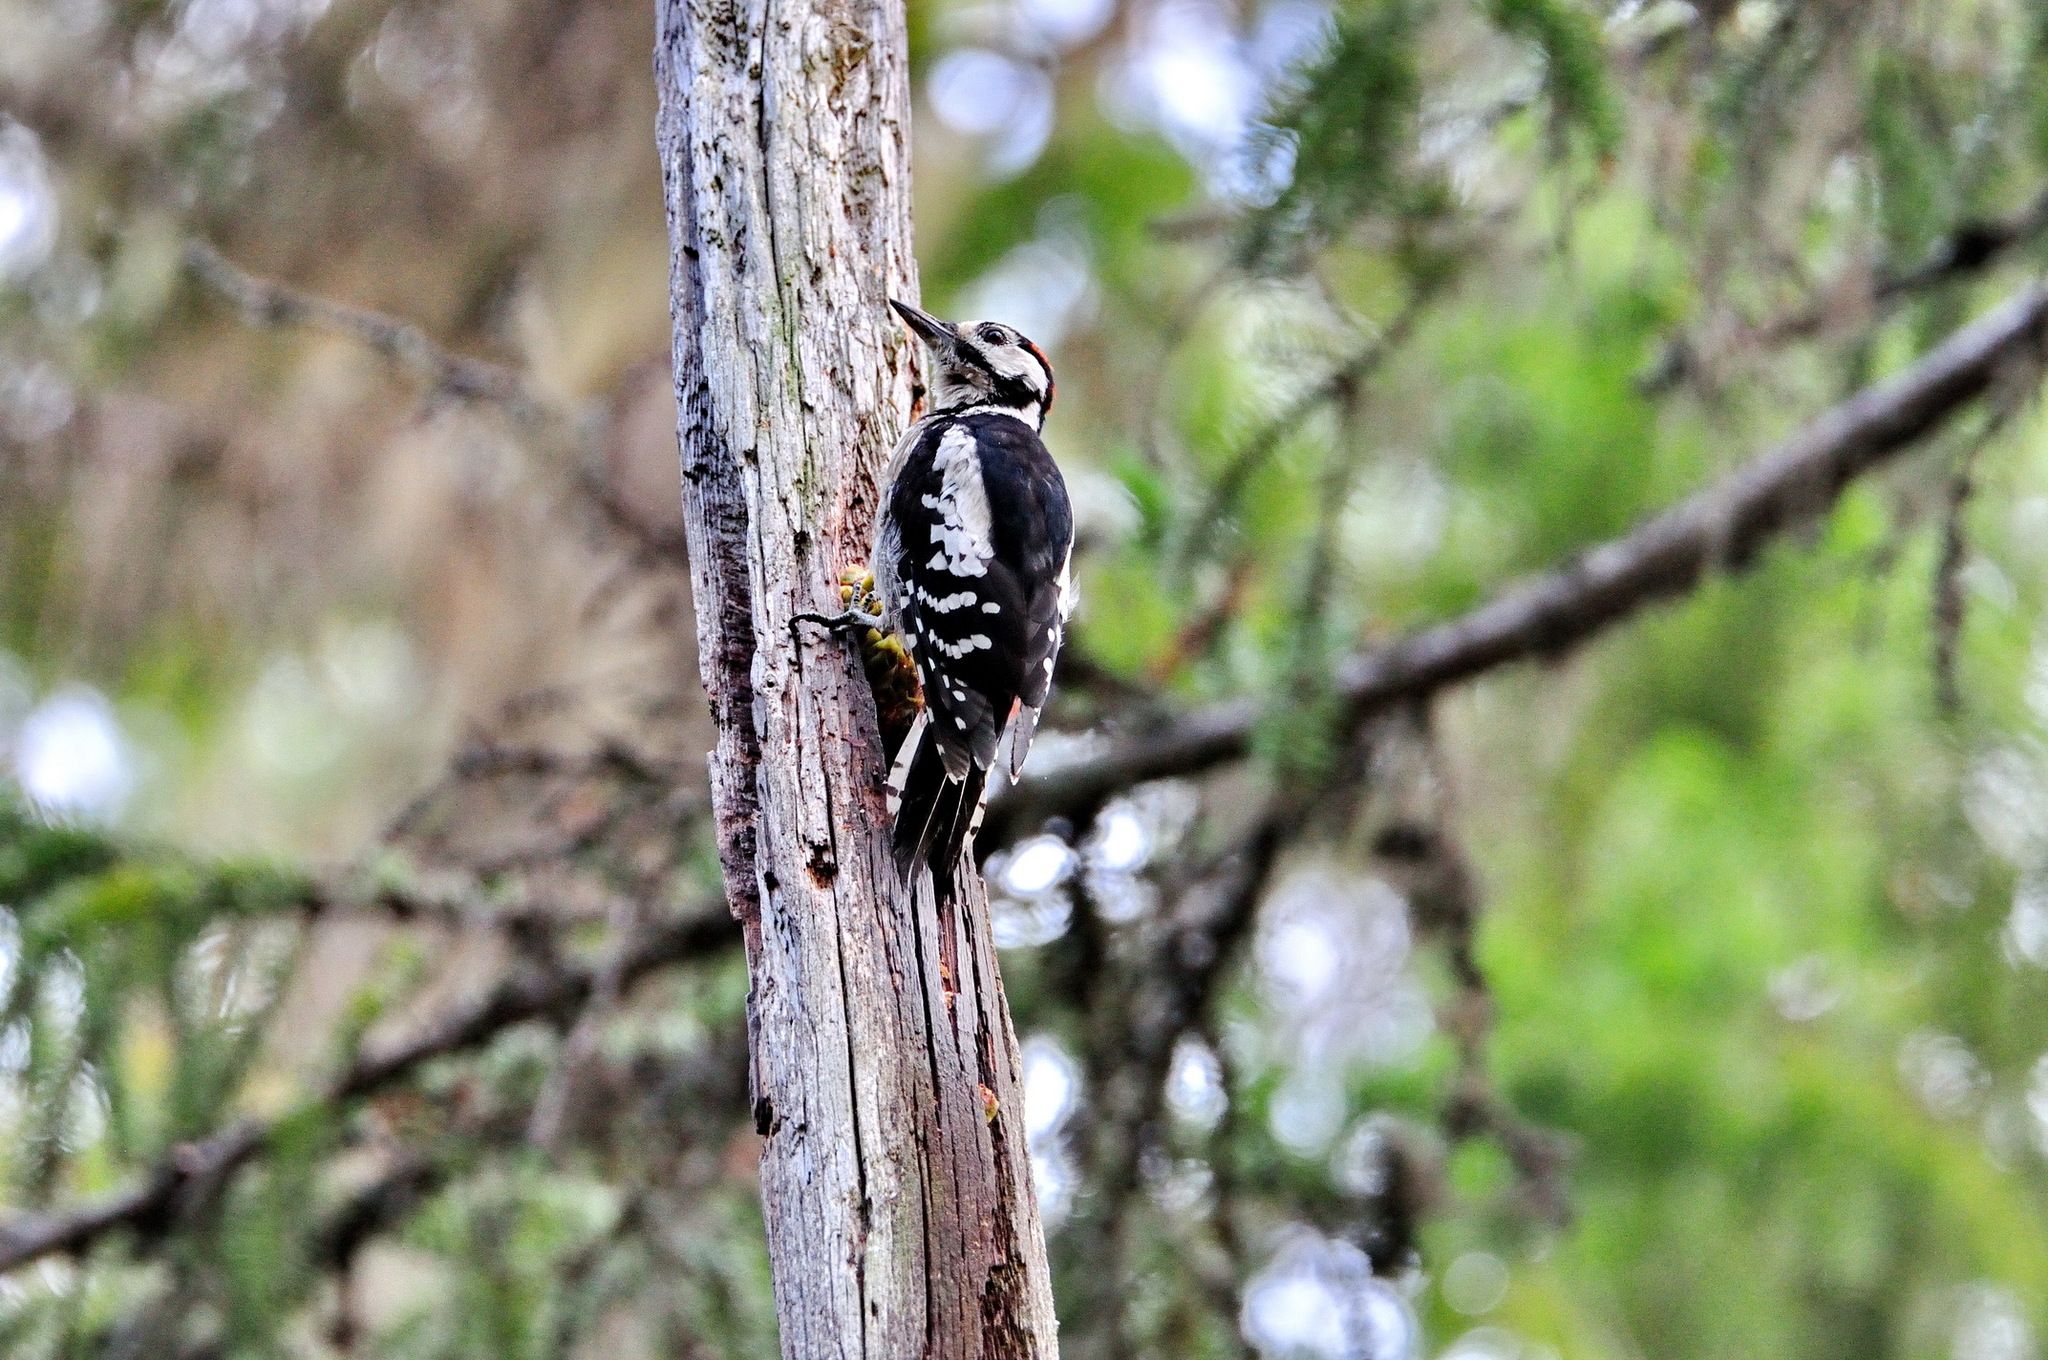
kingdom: Animalia
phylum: Chordata
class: Aves
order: Piciformes
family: Picidae
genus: Dendrocopos
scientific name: Dendrocopos major
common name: Great spotted woodpecker
